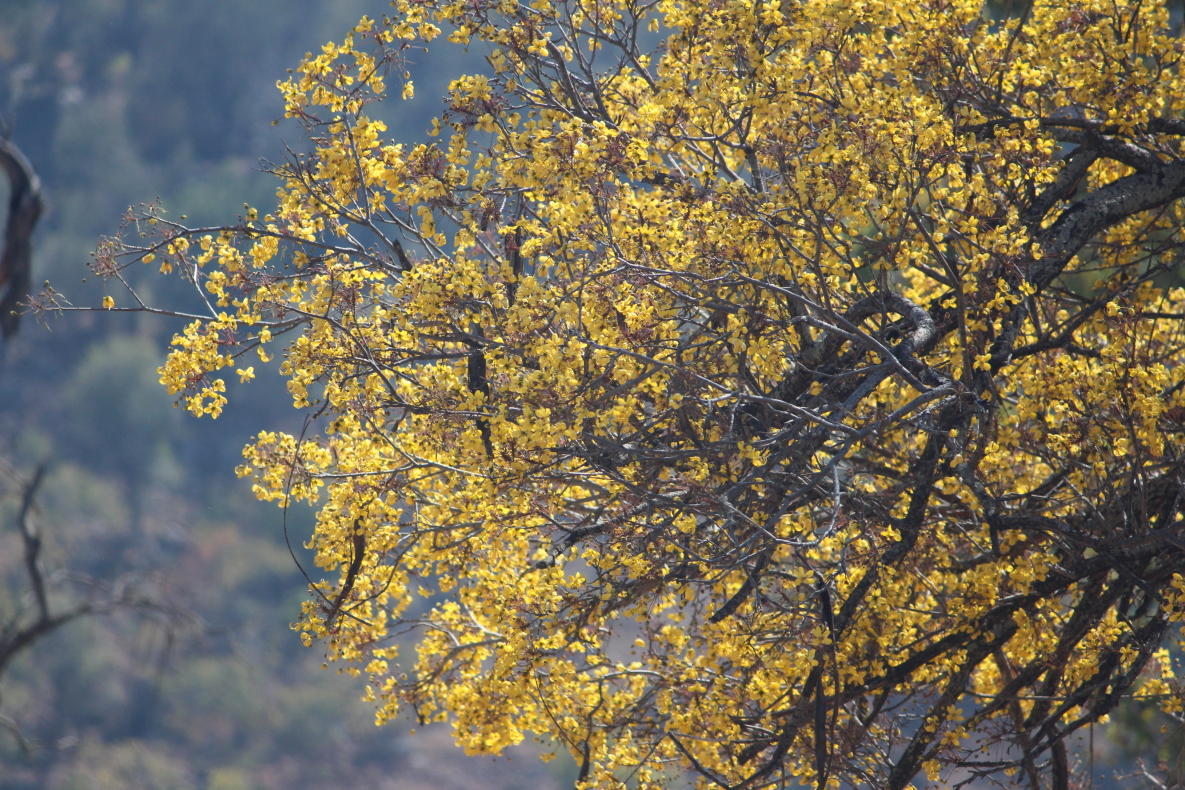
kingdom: Plantae
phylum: Tracheophyta
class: Magnoliopsida
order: Fabales
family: Fabaceae
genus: Cassia
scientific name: Cassia abbreviata
